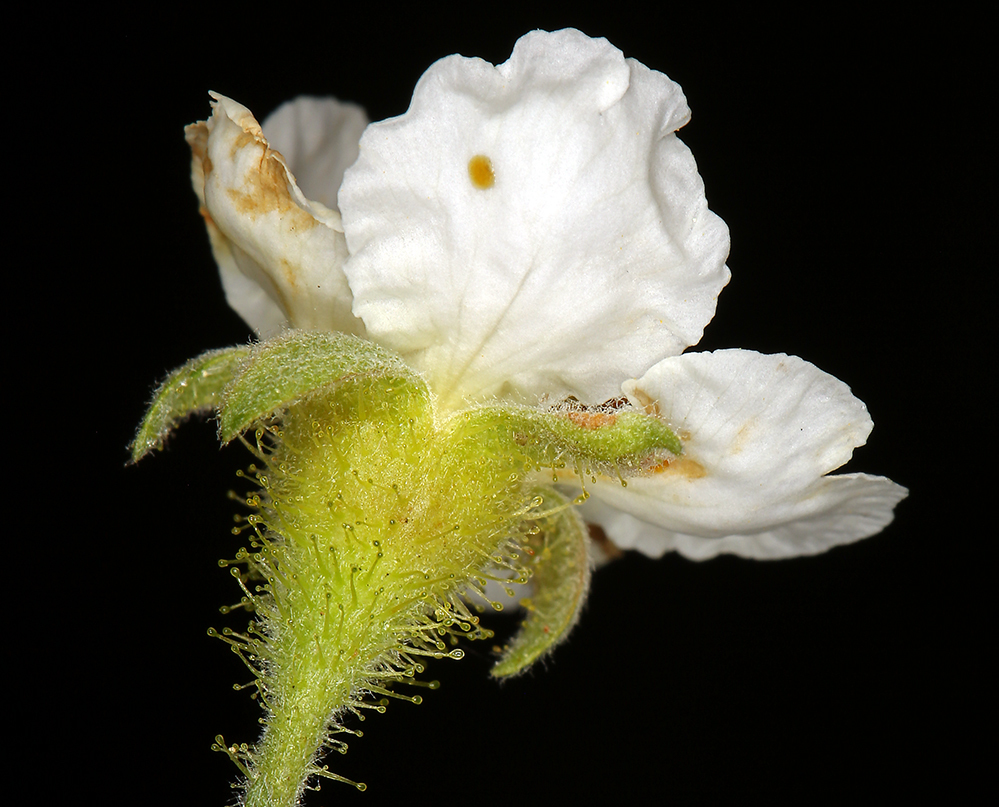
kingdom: Plantae
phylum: Tracheophyta
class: Magnoliopsida
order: Rosales
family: Rosaceae
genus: Chamaebatia
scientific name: Chamaebatia foliolosa
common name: Mountain misery
